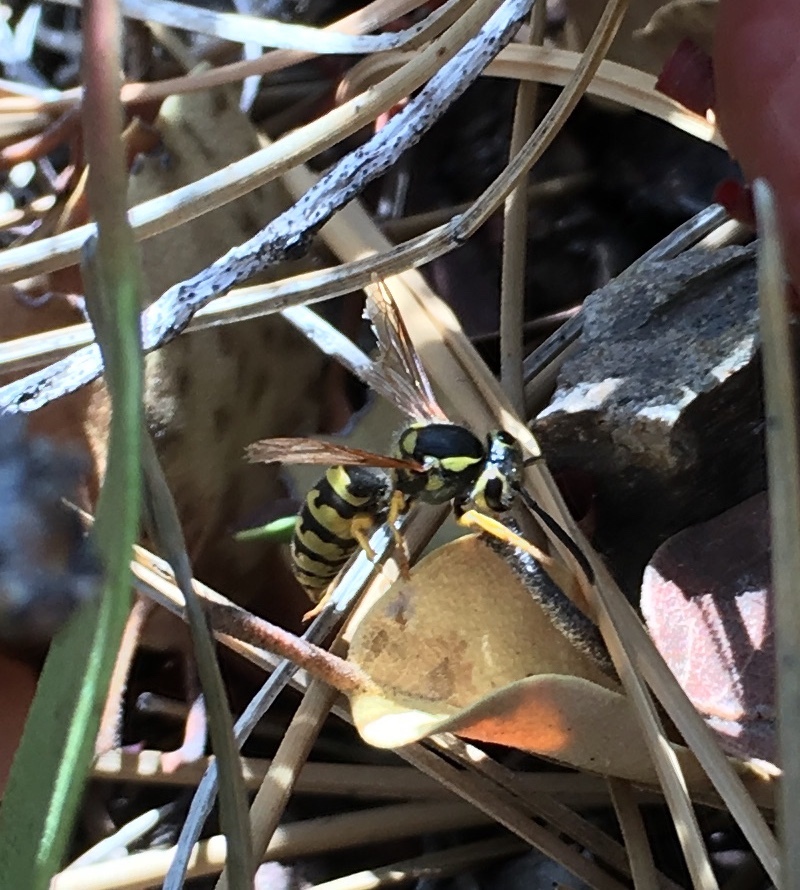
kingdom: Animalia
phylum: Arthropoda
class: Insecta
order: Hymenoptera
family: Vespidae
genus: Vespula
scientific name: Vespula pensylvanica
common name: Western yellowjacket
